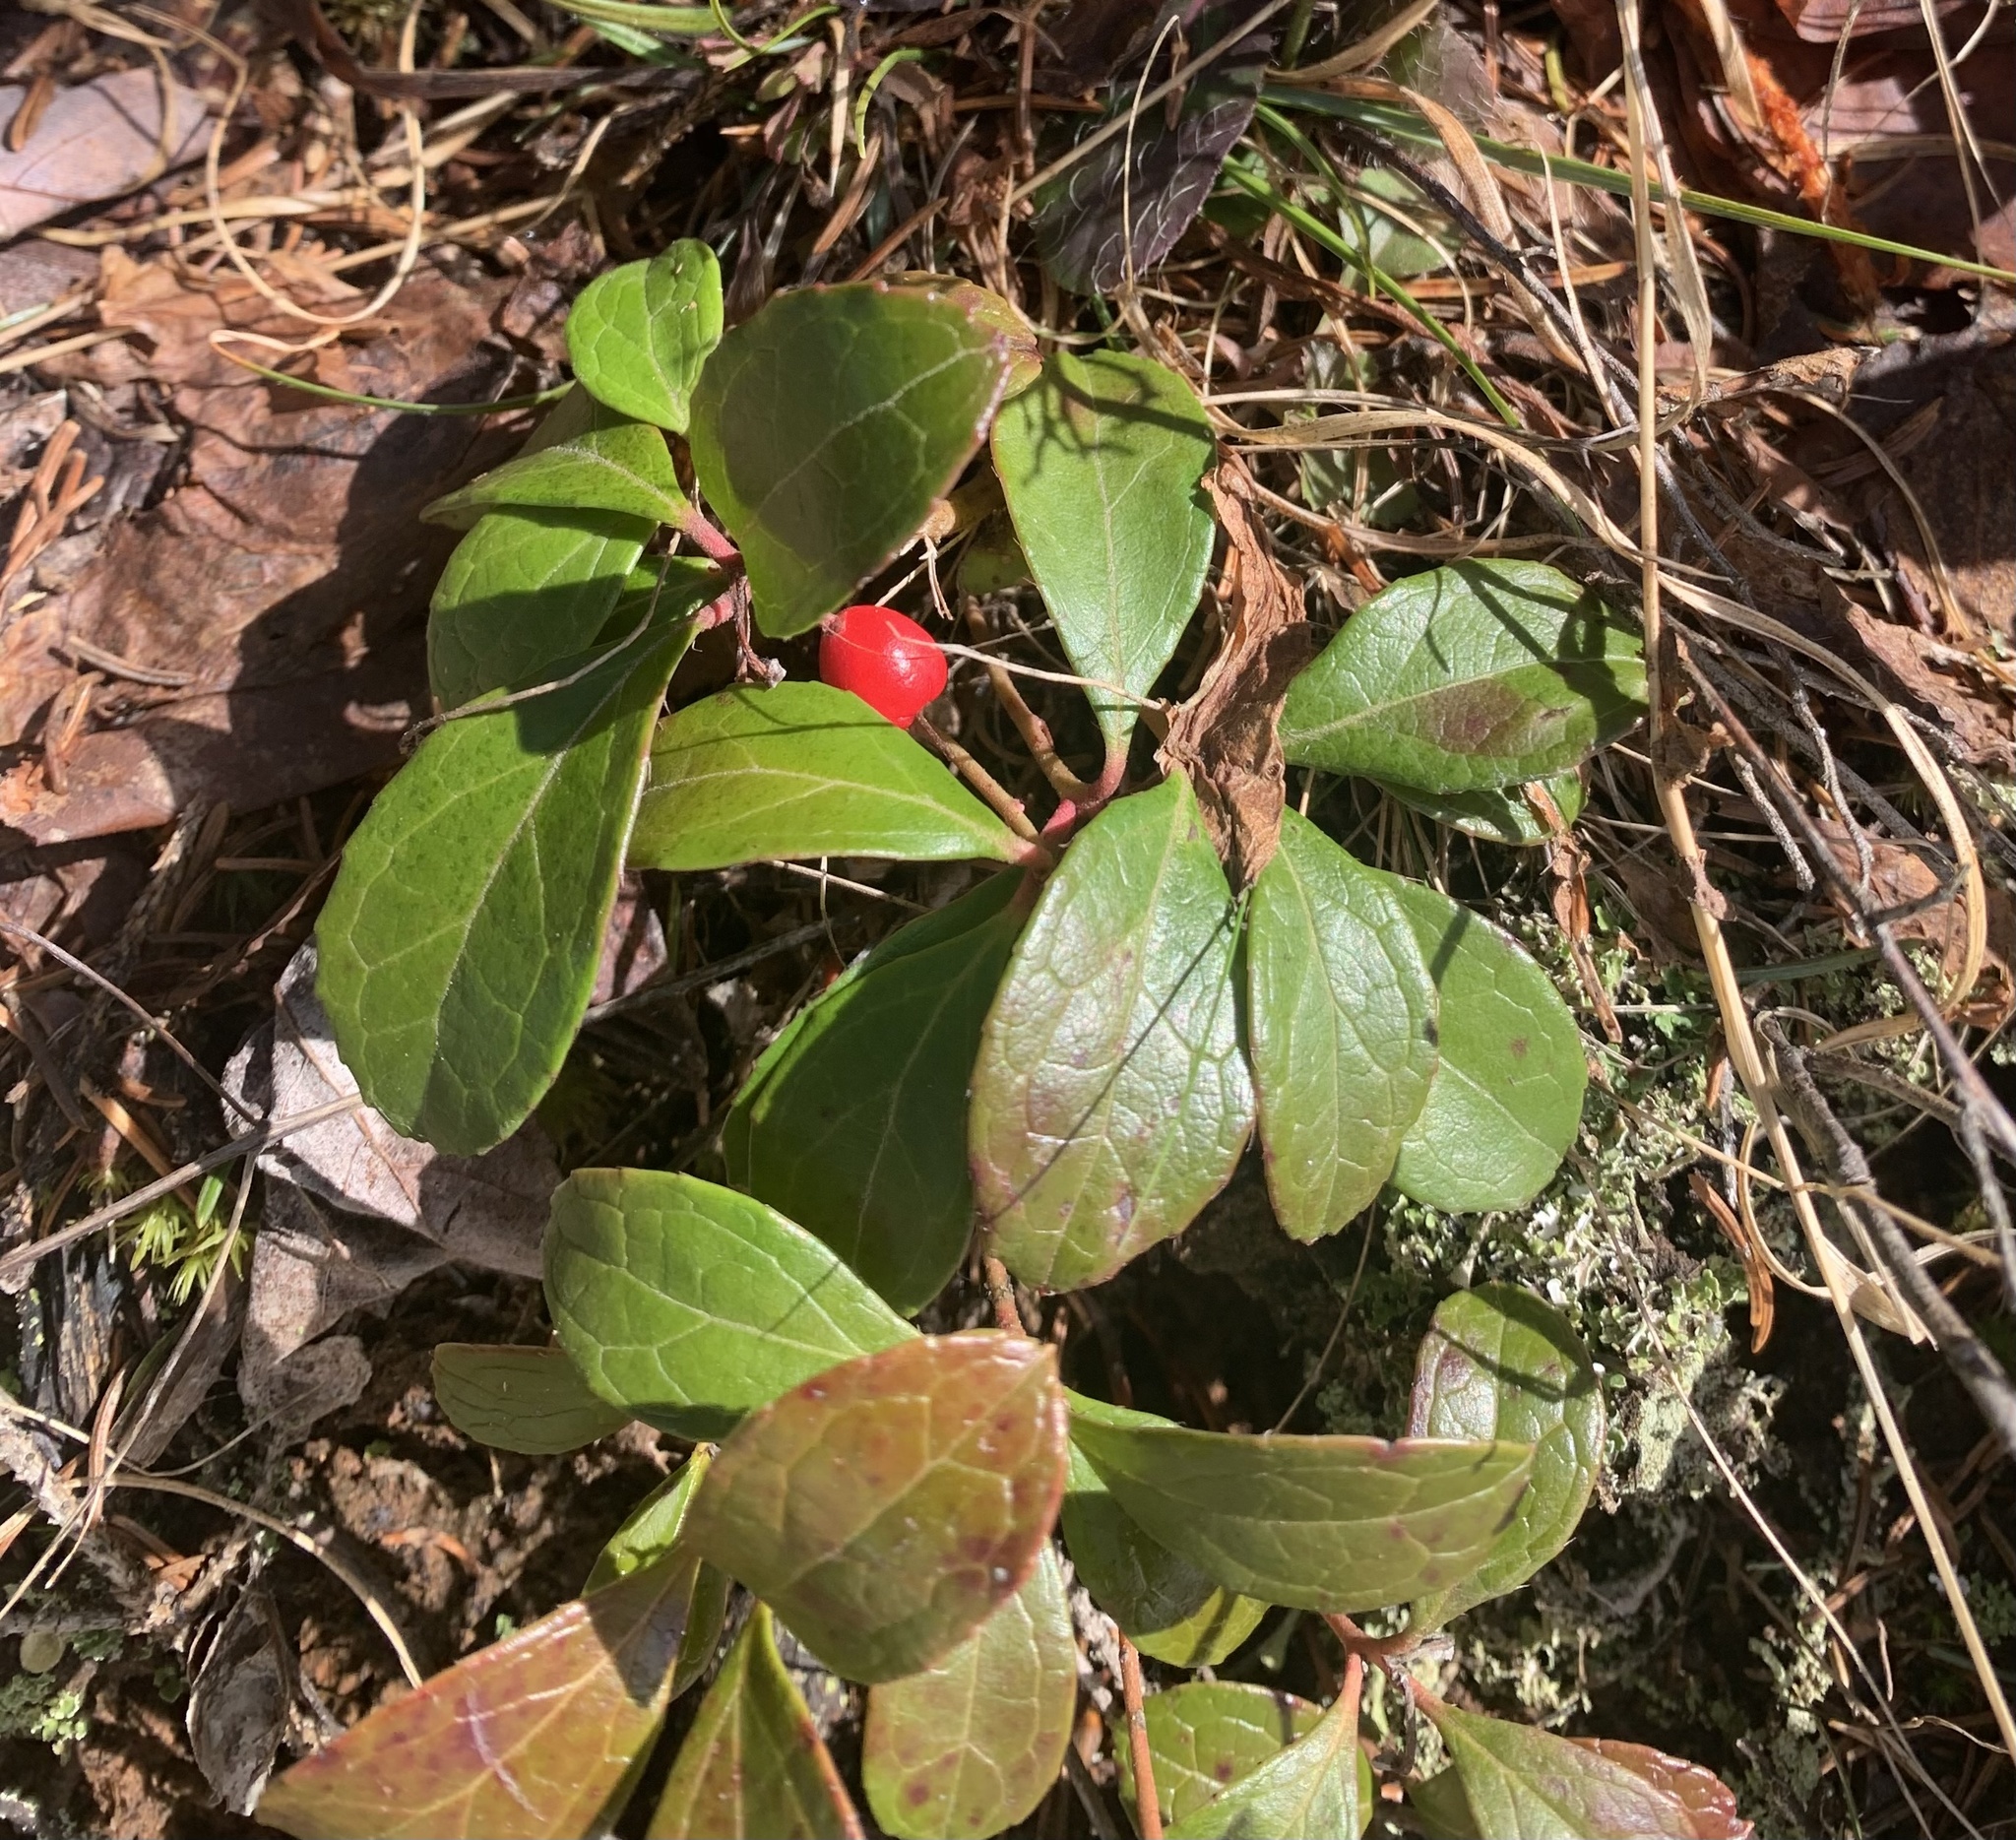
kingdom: Plantae
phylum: Tracheophyta
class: Magnoliopsida
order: Ericales
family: Ericaceae
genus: Gaultheria
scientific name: Gaultheria procumbens
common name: Checkerberry
